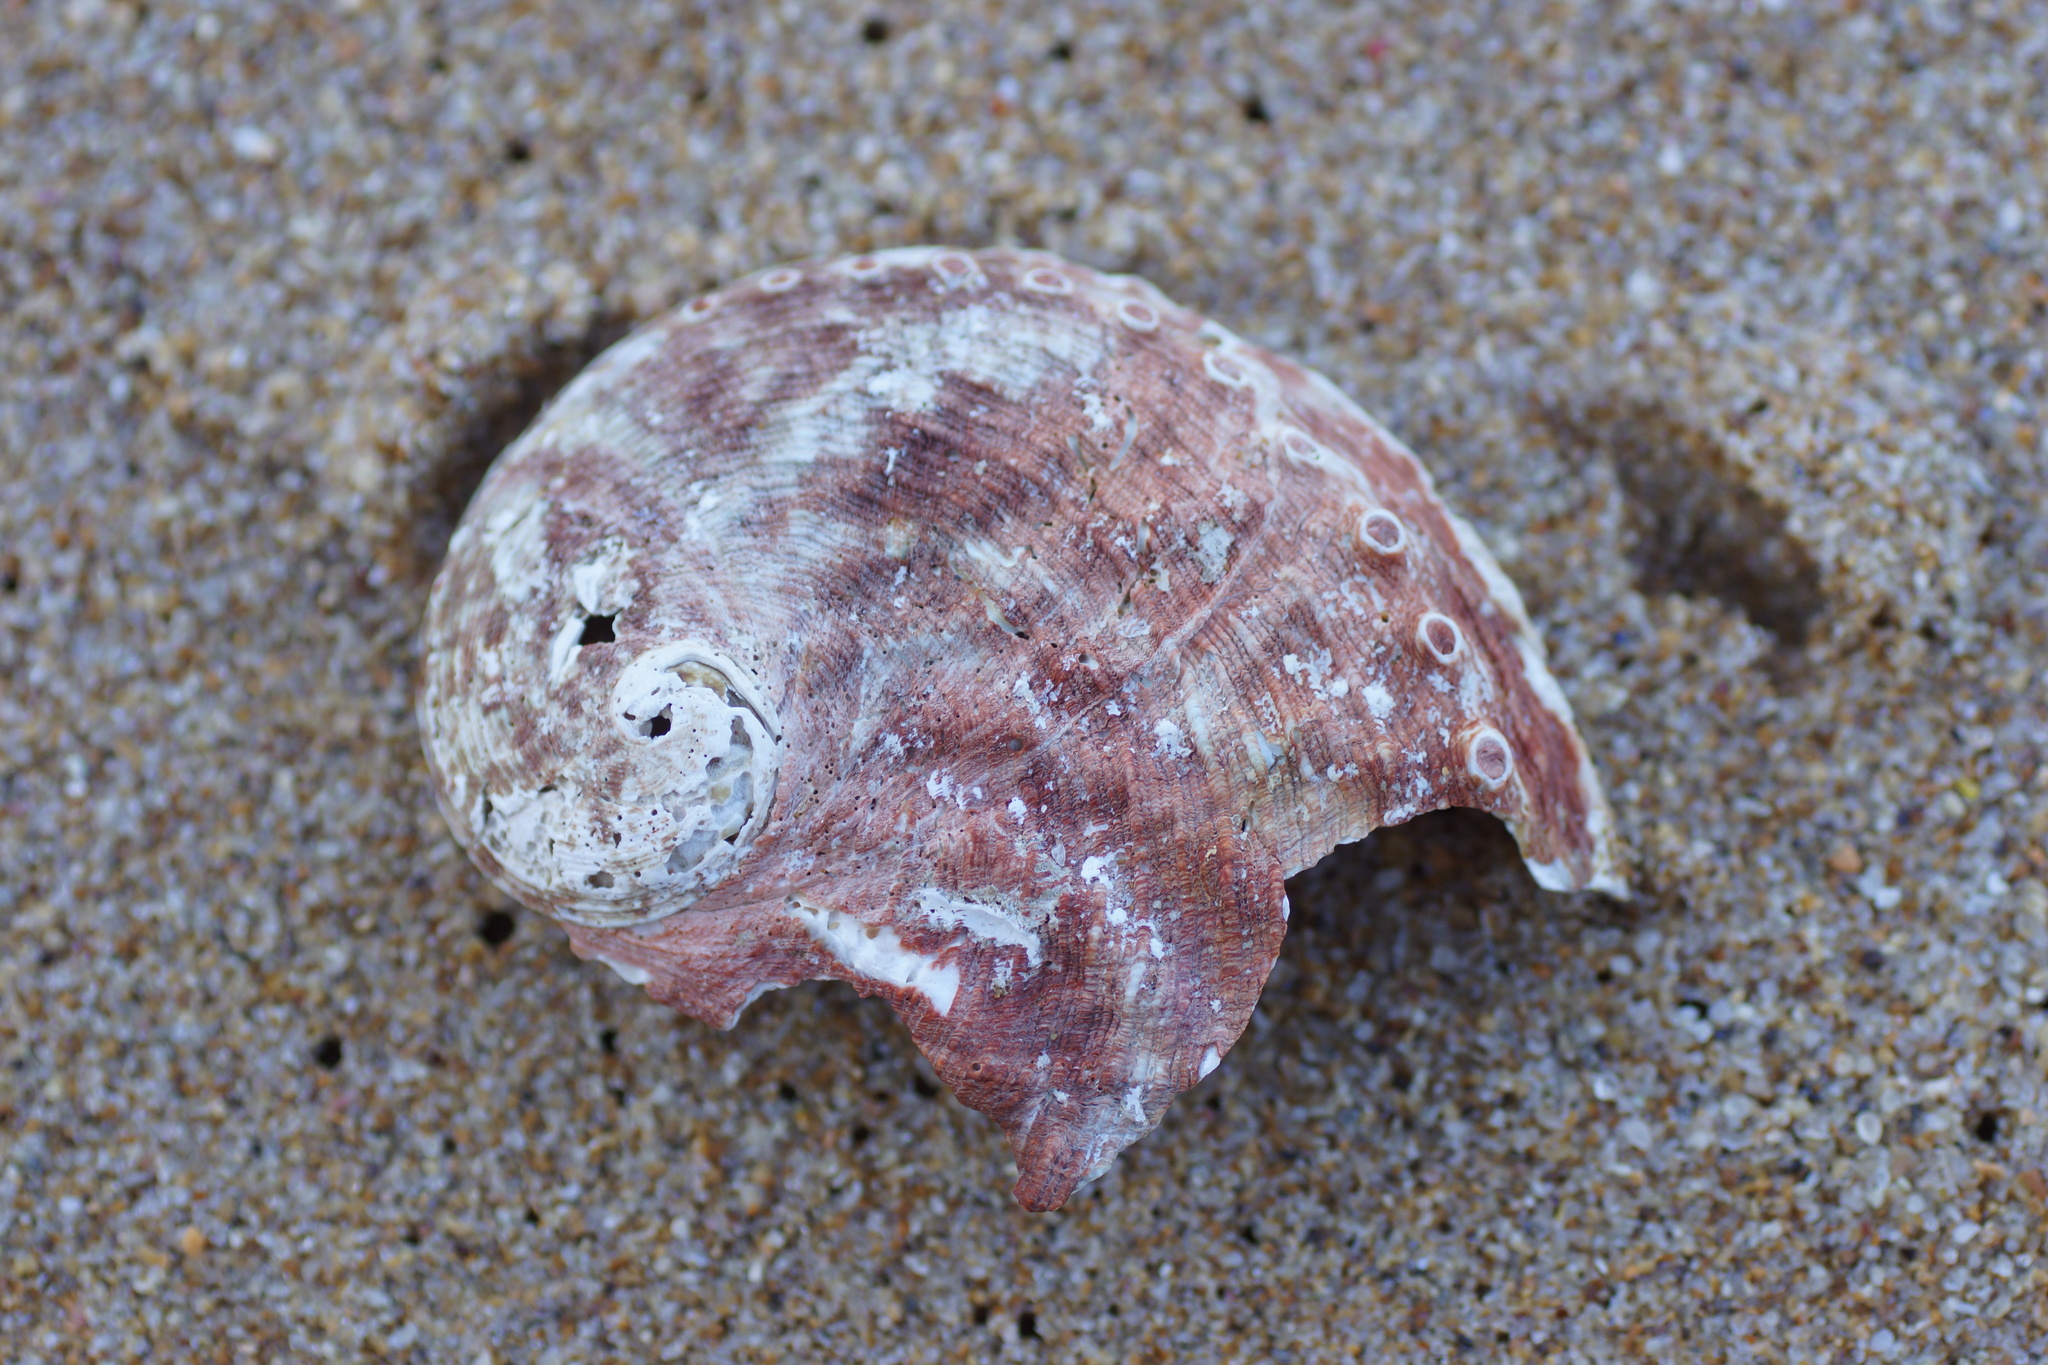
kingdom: Animalia
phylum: Mollusca
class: Gastropoda
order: Lepetellida
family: Haliotidae
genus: Haliotis
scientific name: Haliotis rubra
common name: Blacklip abalone
